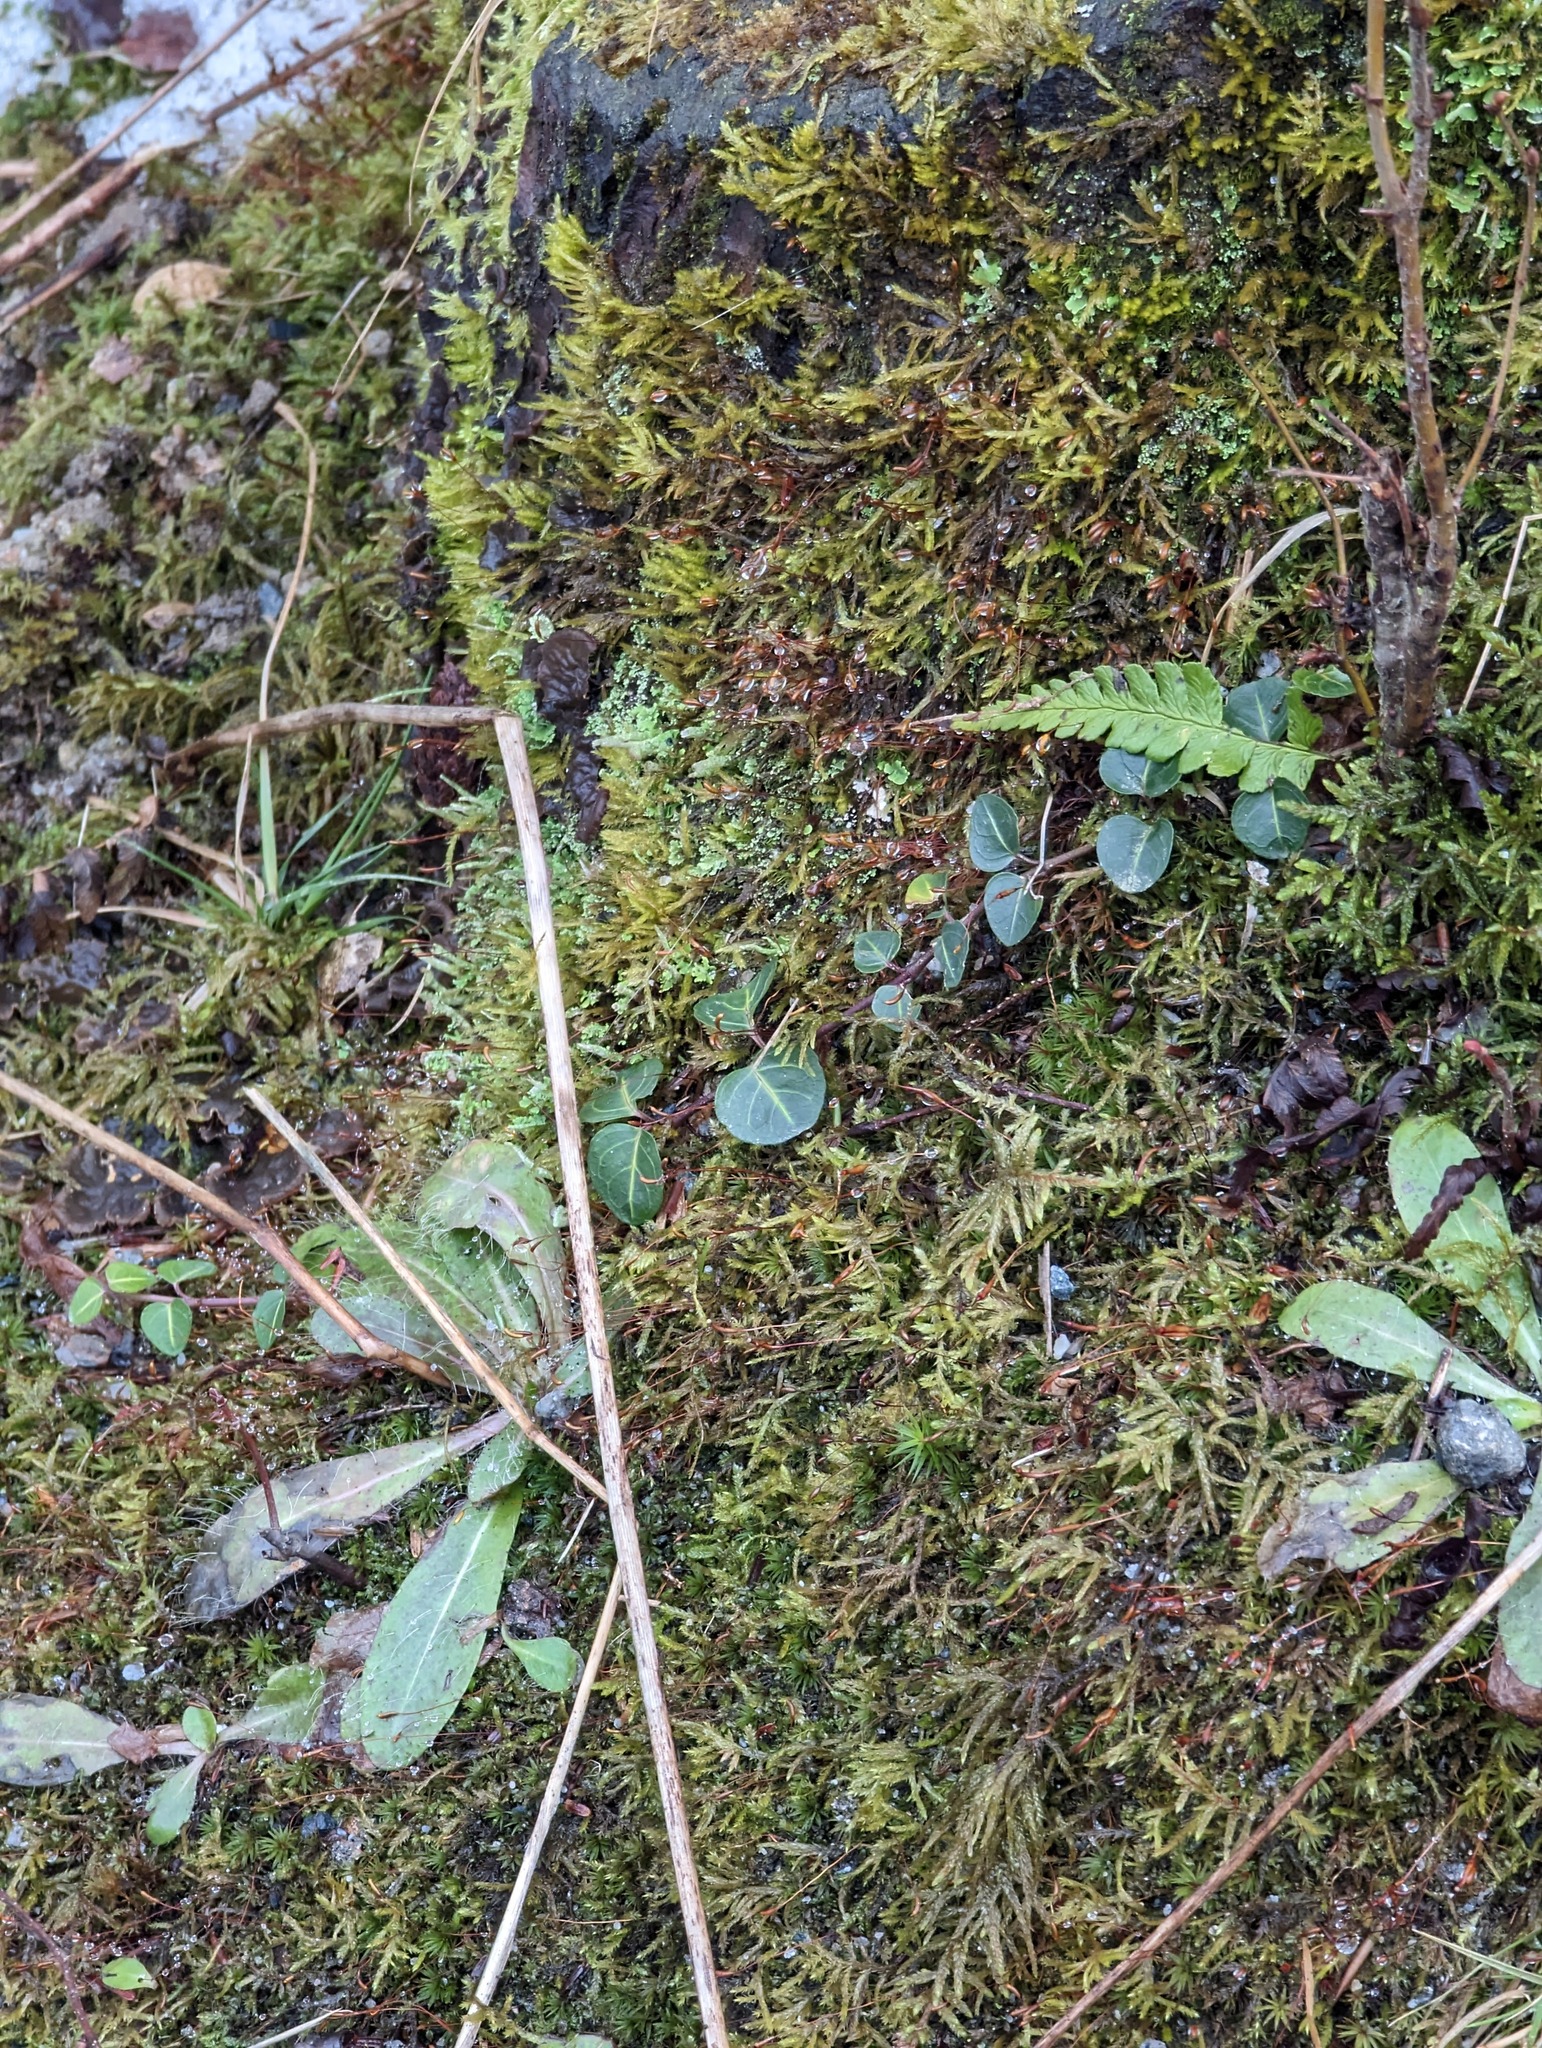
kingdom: Plantae
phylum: Tracheophyta
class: Magnoliopsida
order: Gentianales
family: Rubiaceae
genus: Mitchella
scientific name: Mitchella repens
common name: Partridge-berry
